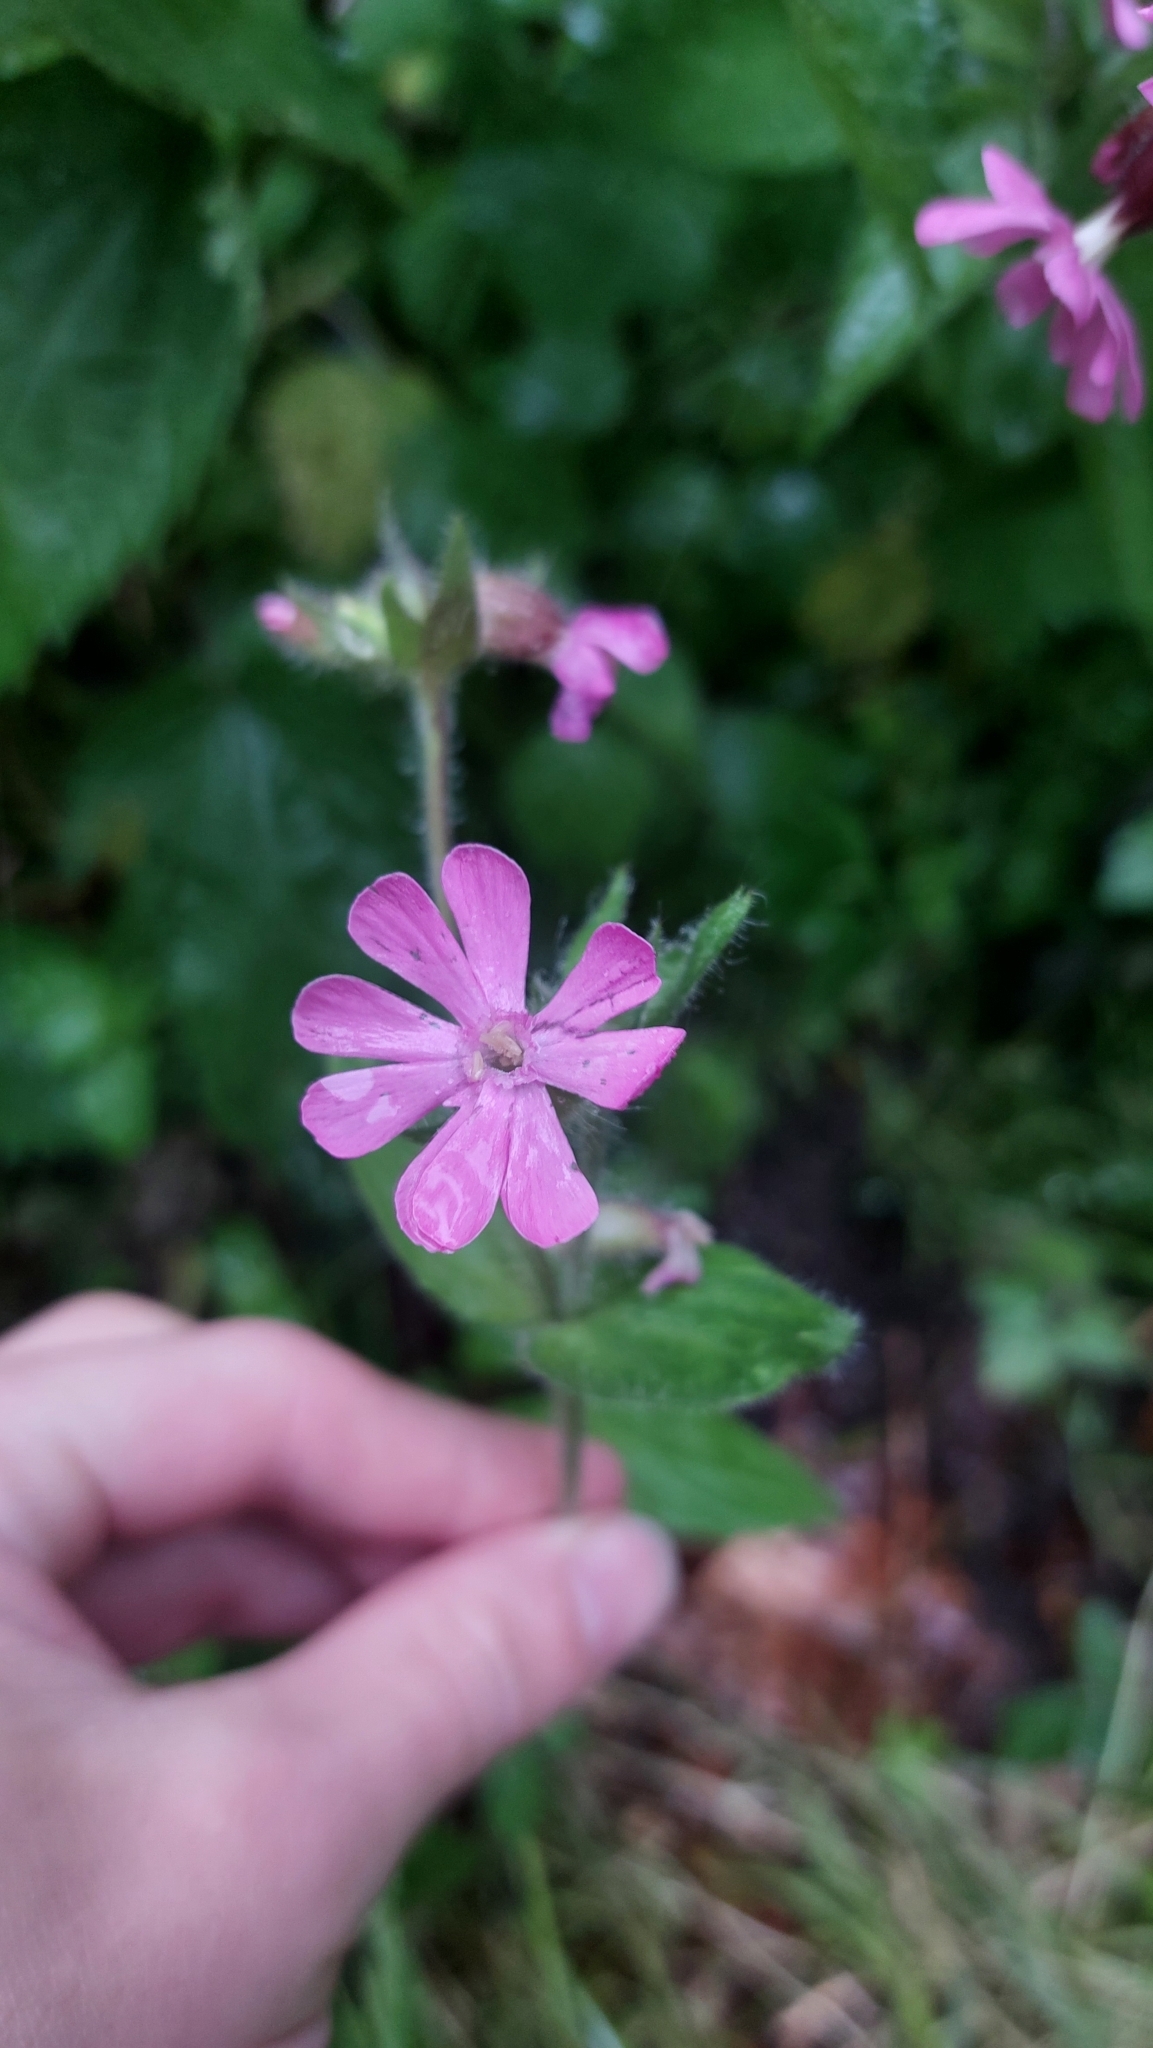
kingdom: Plantae
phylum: Tracheophyta
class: Magnoliopsida
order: Caryophyllales
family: Caryophyllaceae
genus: Silene
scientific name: Silene dioica
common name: Red campion
